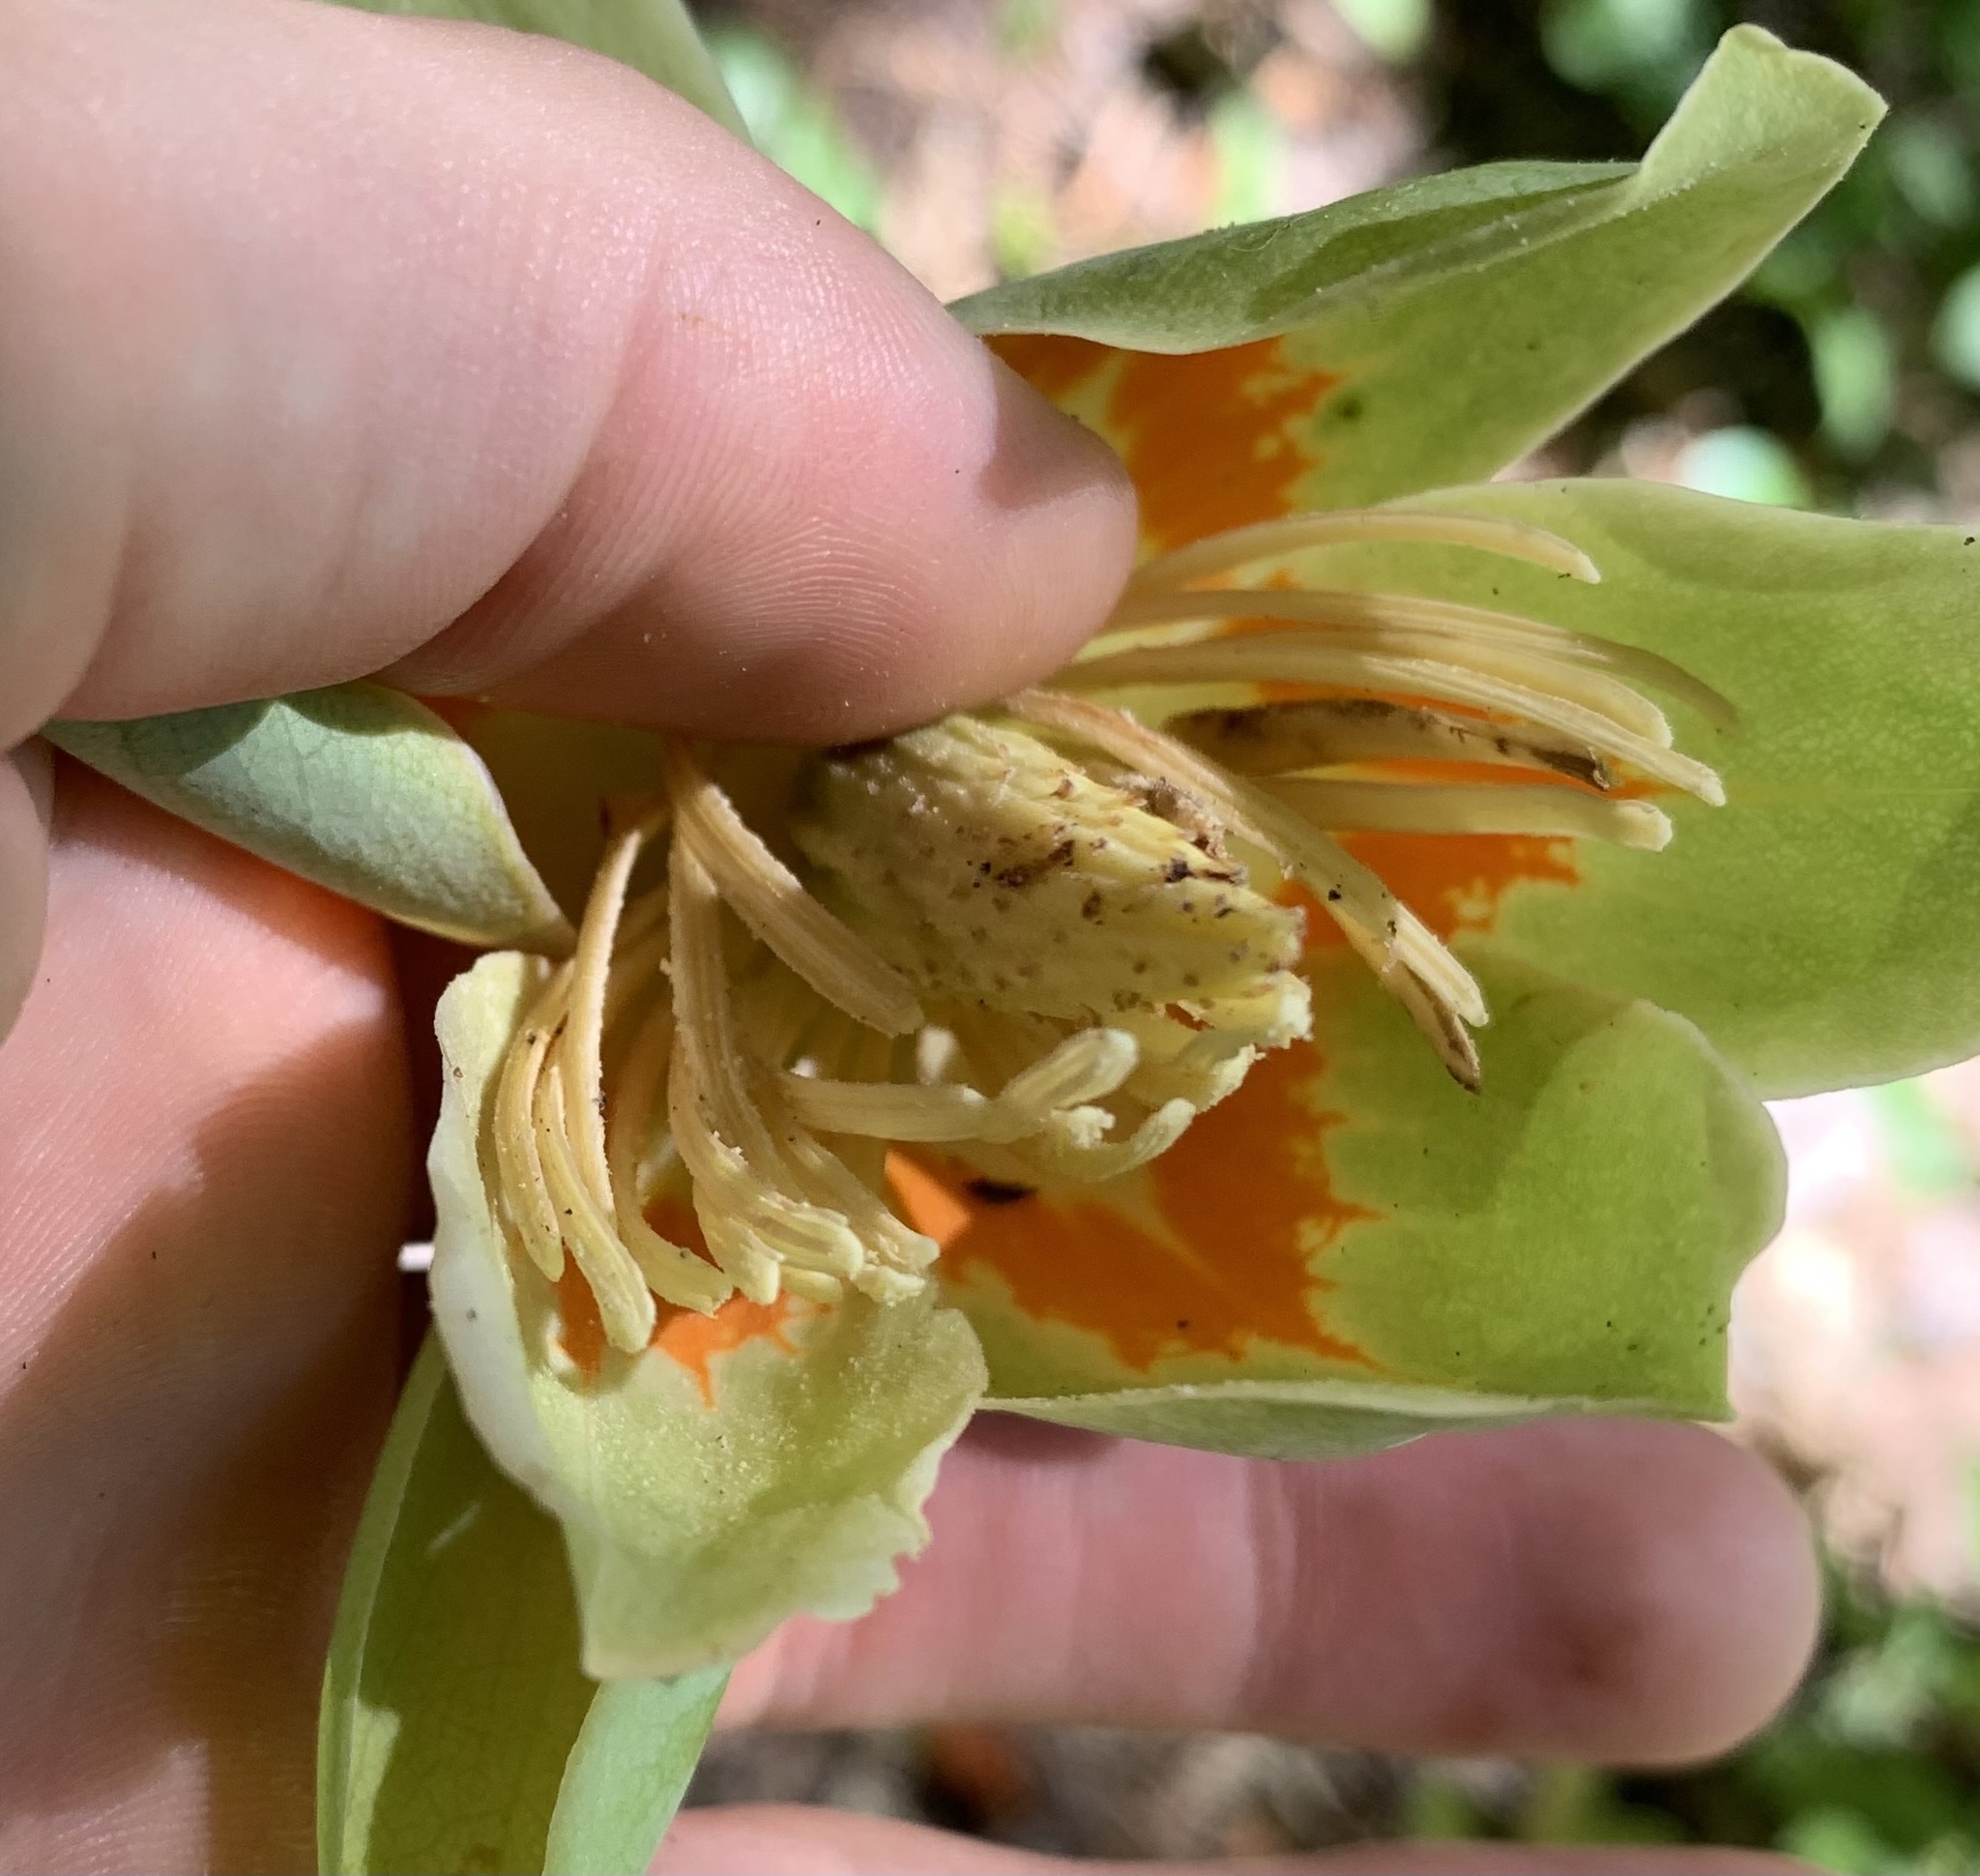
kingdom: Plantae
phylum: Tracheophyta
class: Magnoliopsida
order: Magnoliales
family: Magnoliaceae
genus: Liriodendron
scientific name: Liriodendron tulipifera
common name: Tulip tree
